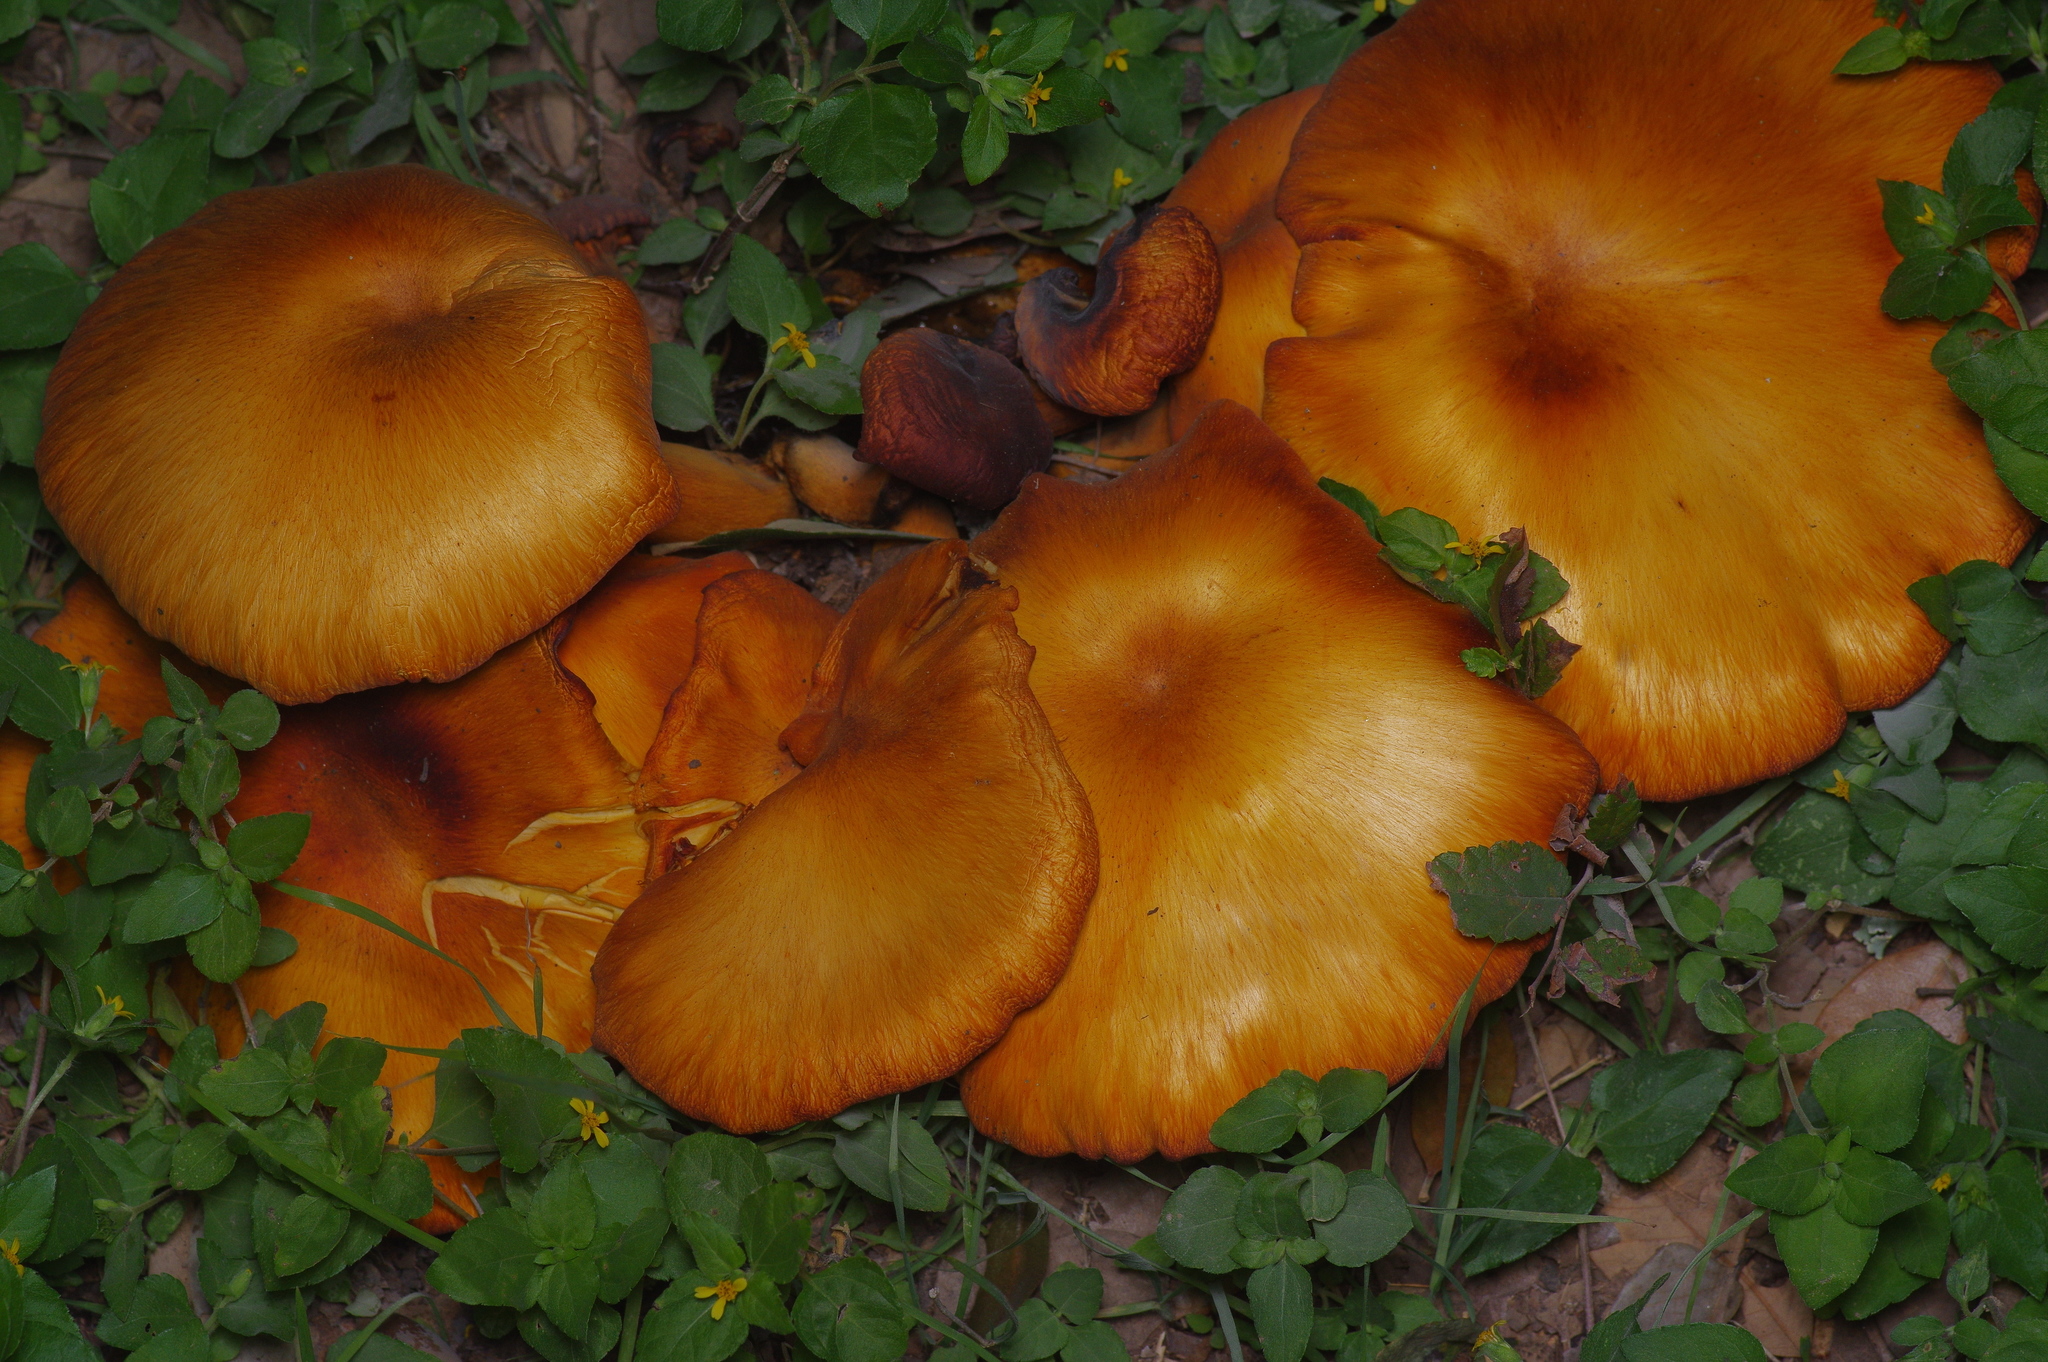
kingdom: Fungi
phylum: Basidiomycota
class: Agaricomycetes
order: Agaricales
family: Omphalotaceae
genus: Omphalotus
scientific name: Omphalotus subilludens
